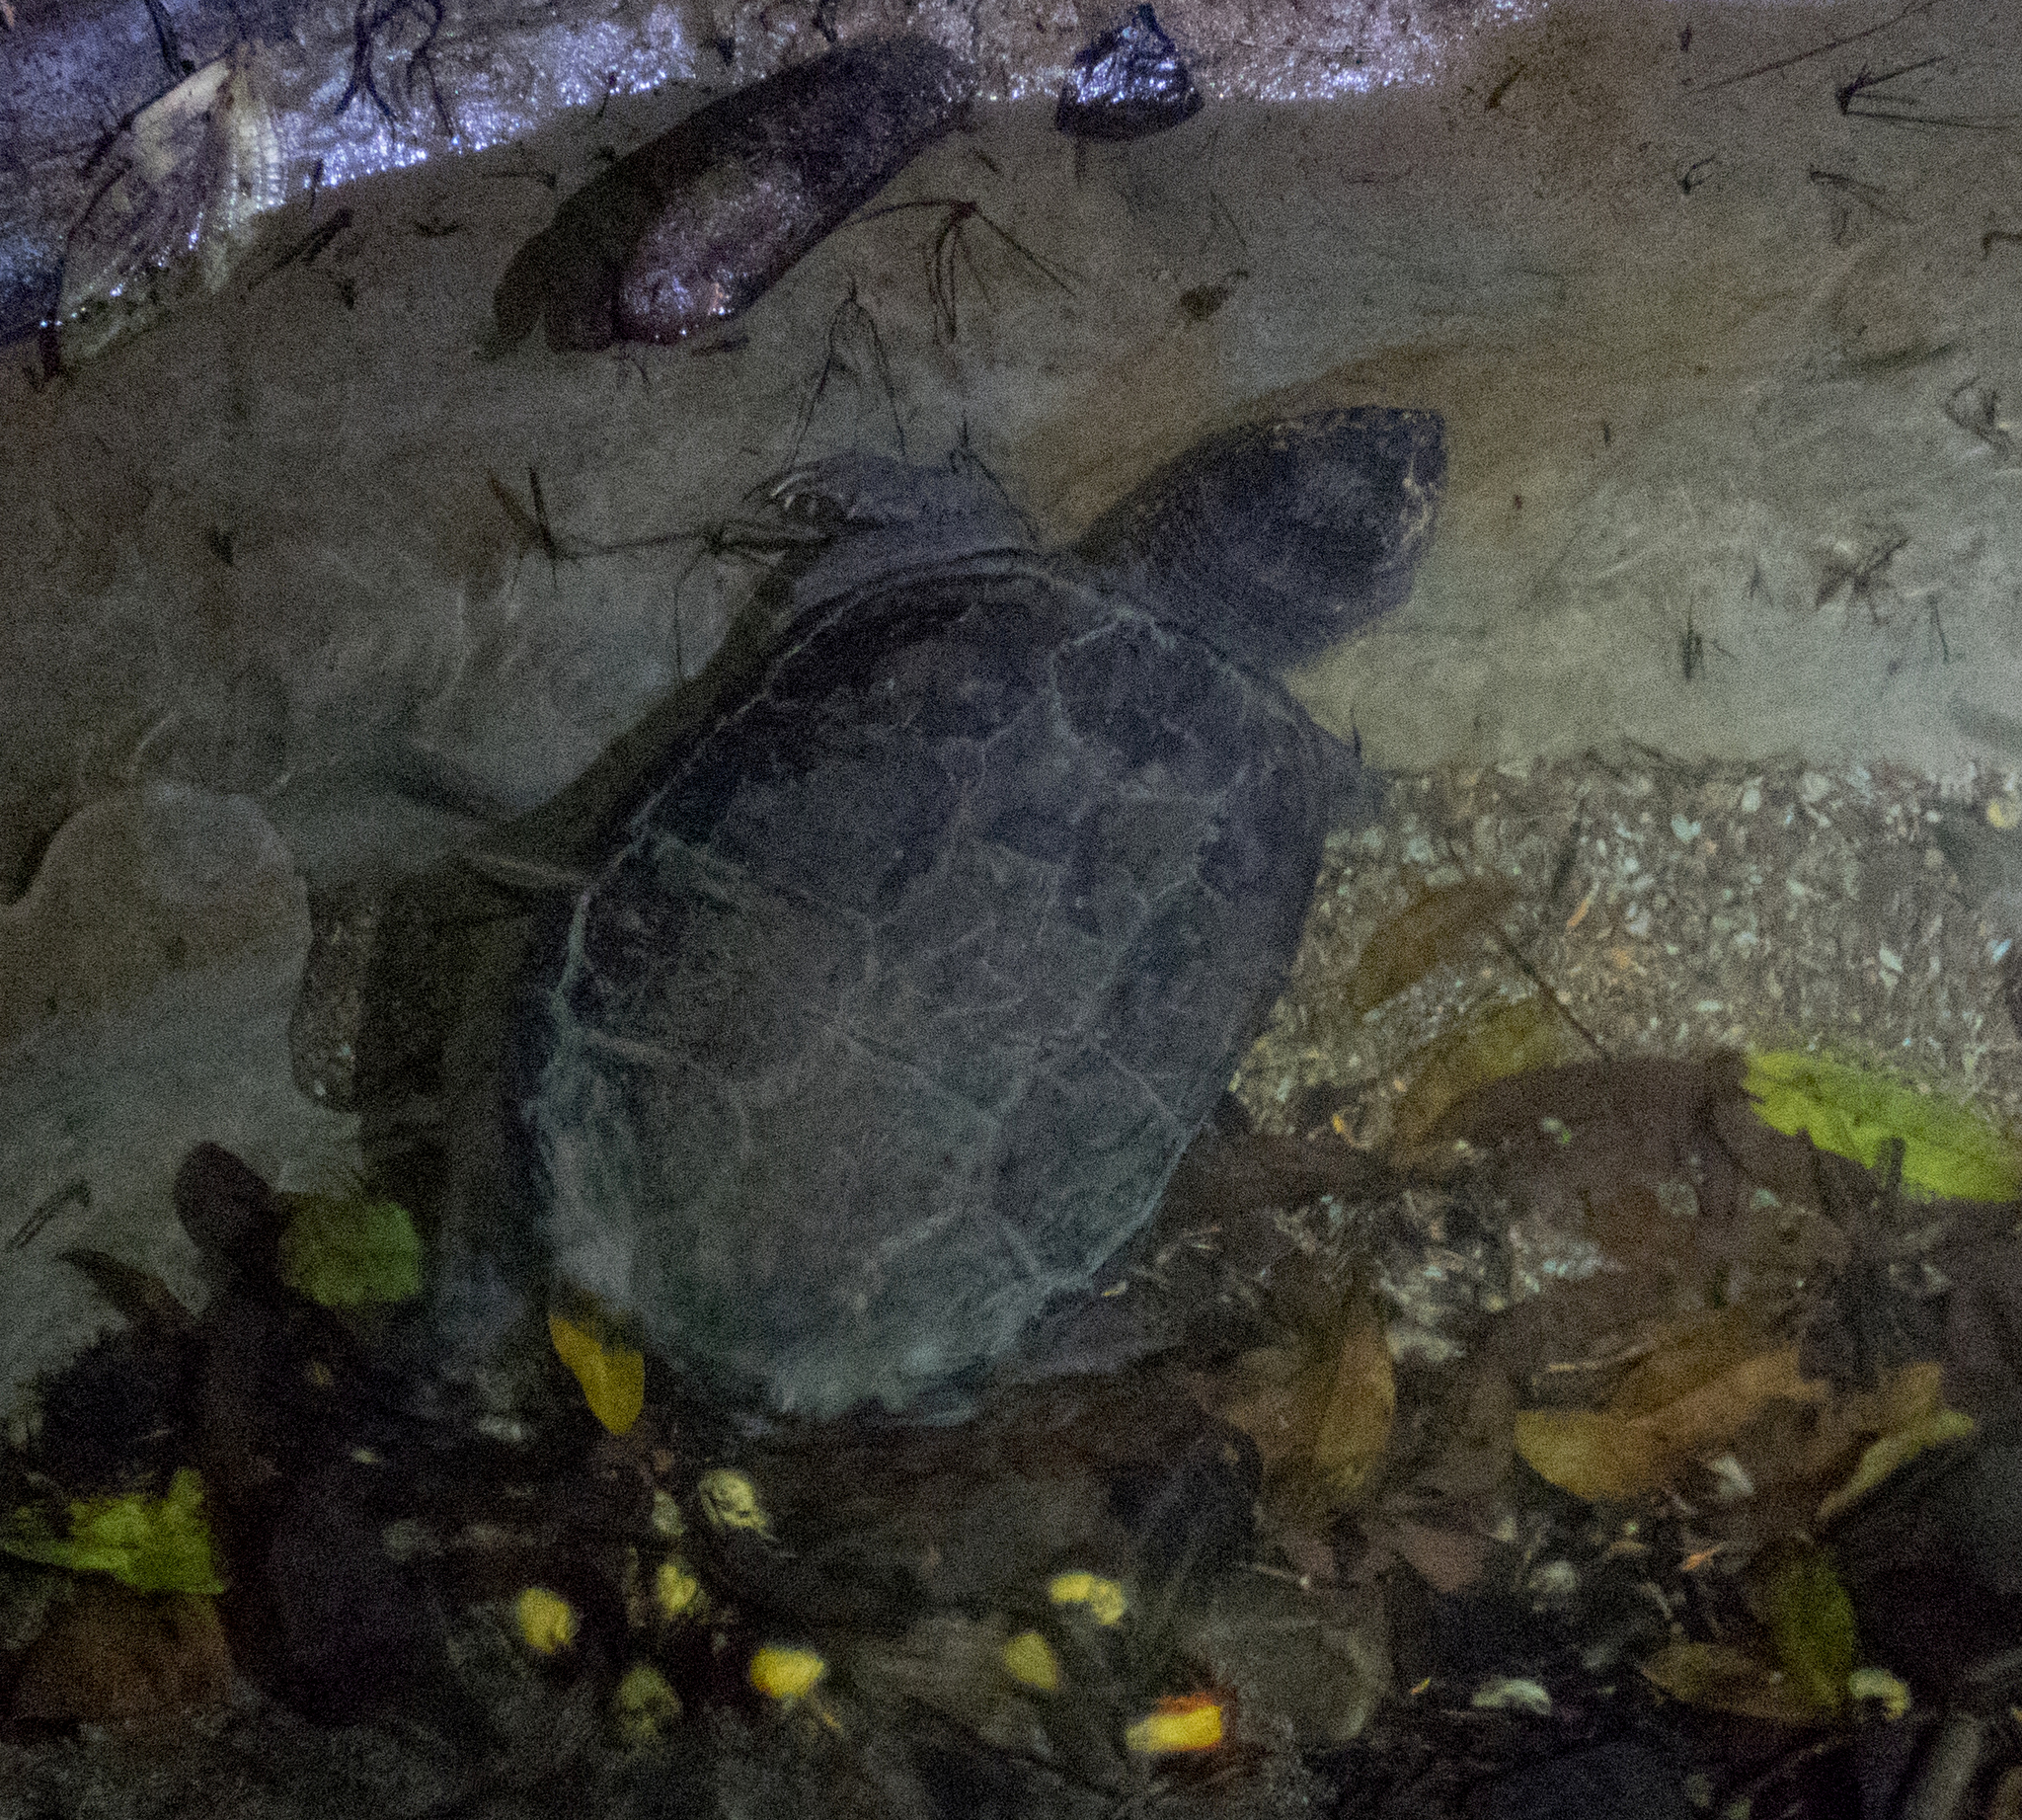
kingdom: Animalia
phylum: Chordata
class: Testudines
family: Chelydridae
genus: Chelydra
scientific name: Chelydra acutirostris
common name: South american snapping turtle
